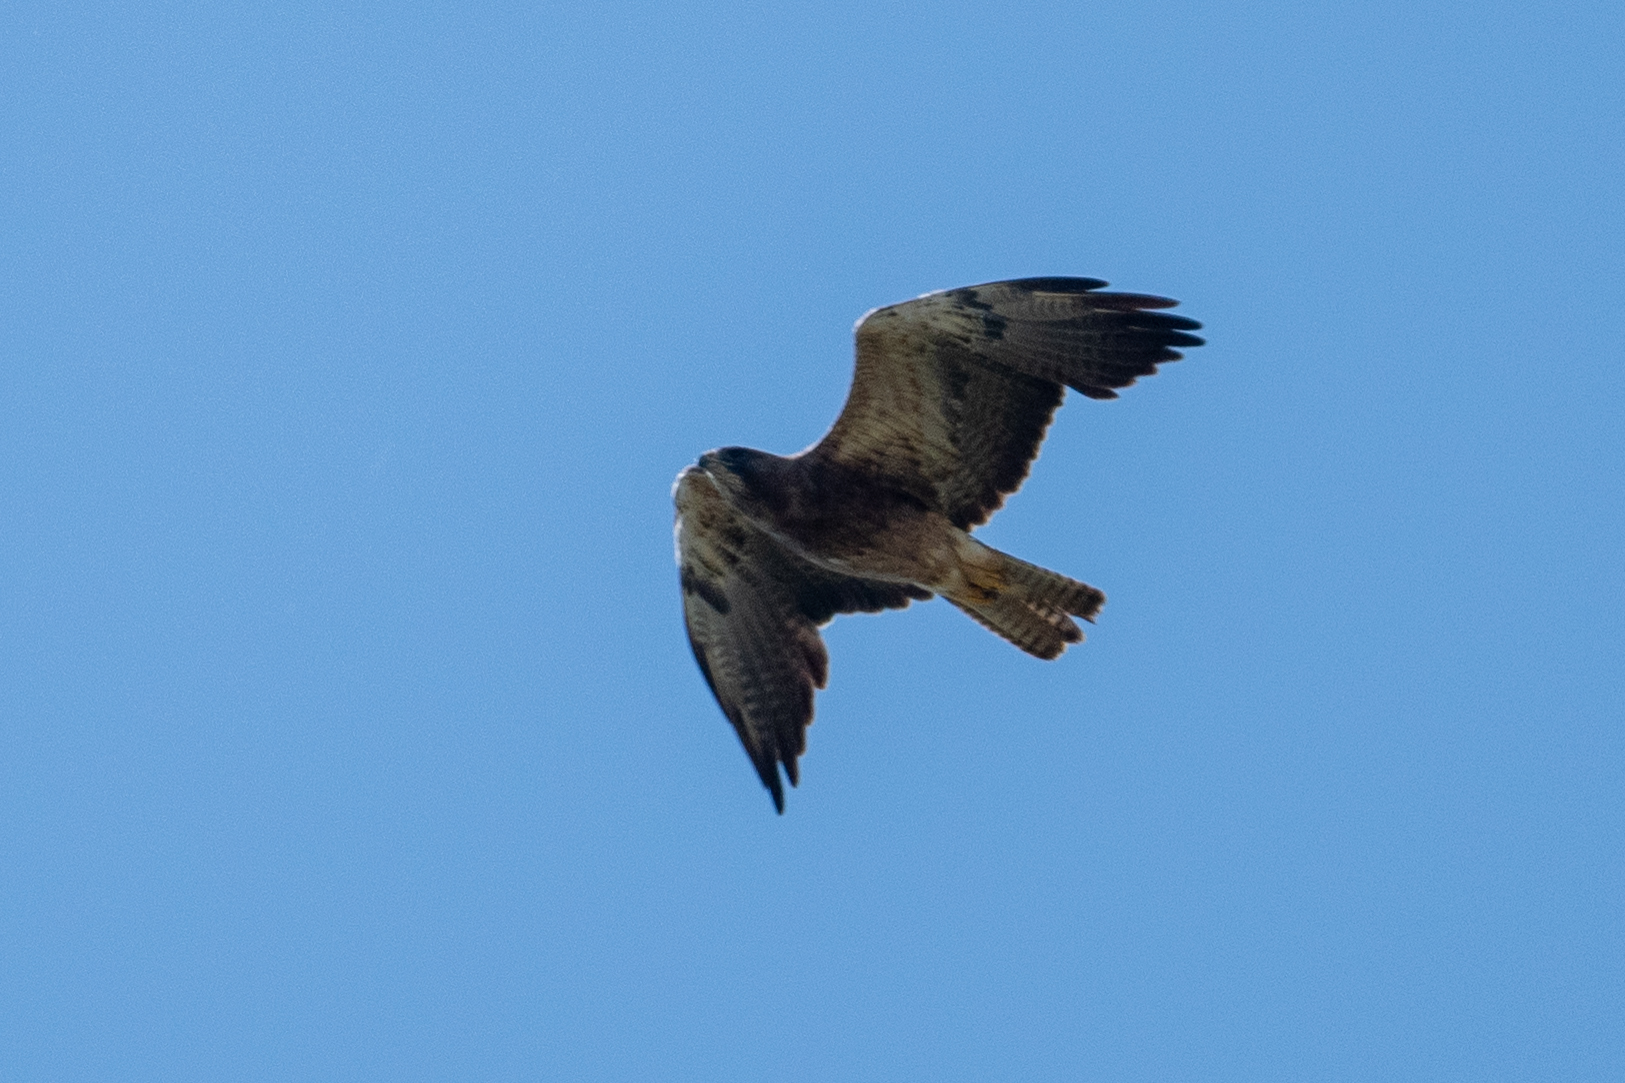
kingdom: Animalia
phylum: Chordata
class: Aves
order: Accipitriformes
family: Accipitridae
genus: Buteo
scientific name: Buteo swainsoni
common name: Swainson's hawk
